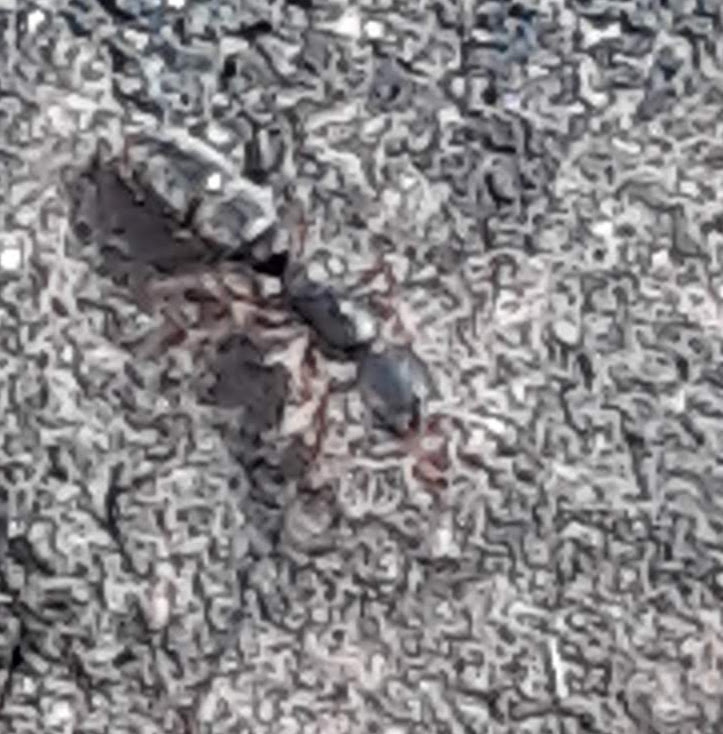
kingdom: Animalia
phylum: Arthropoda
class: Insecta
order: Hymenoptera
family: Formicidae
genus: Ponera
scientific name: Ponera pennsylvanica
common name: Pennsylvania ponera
